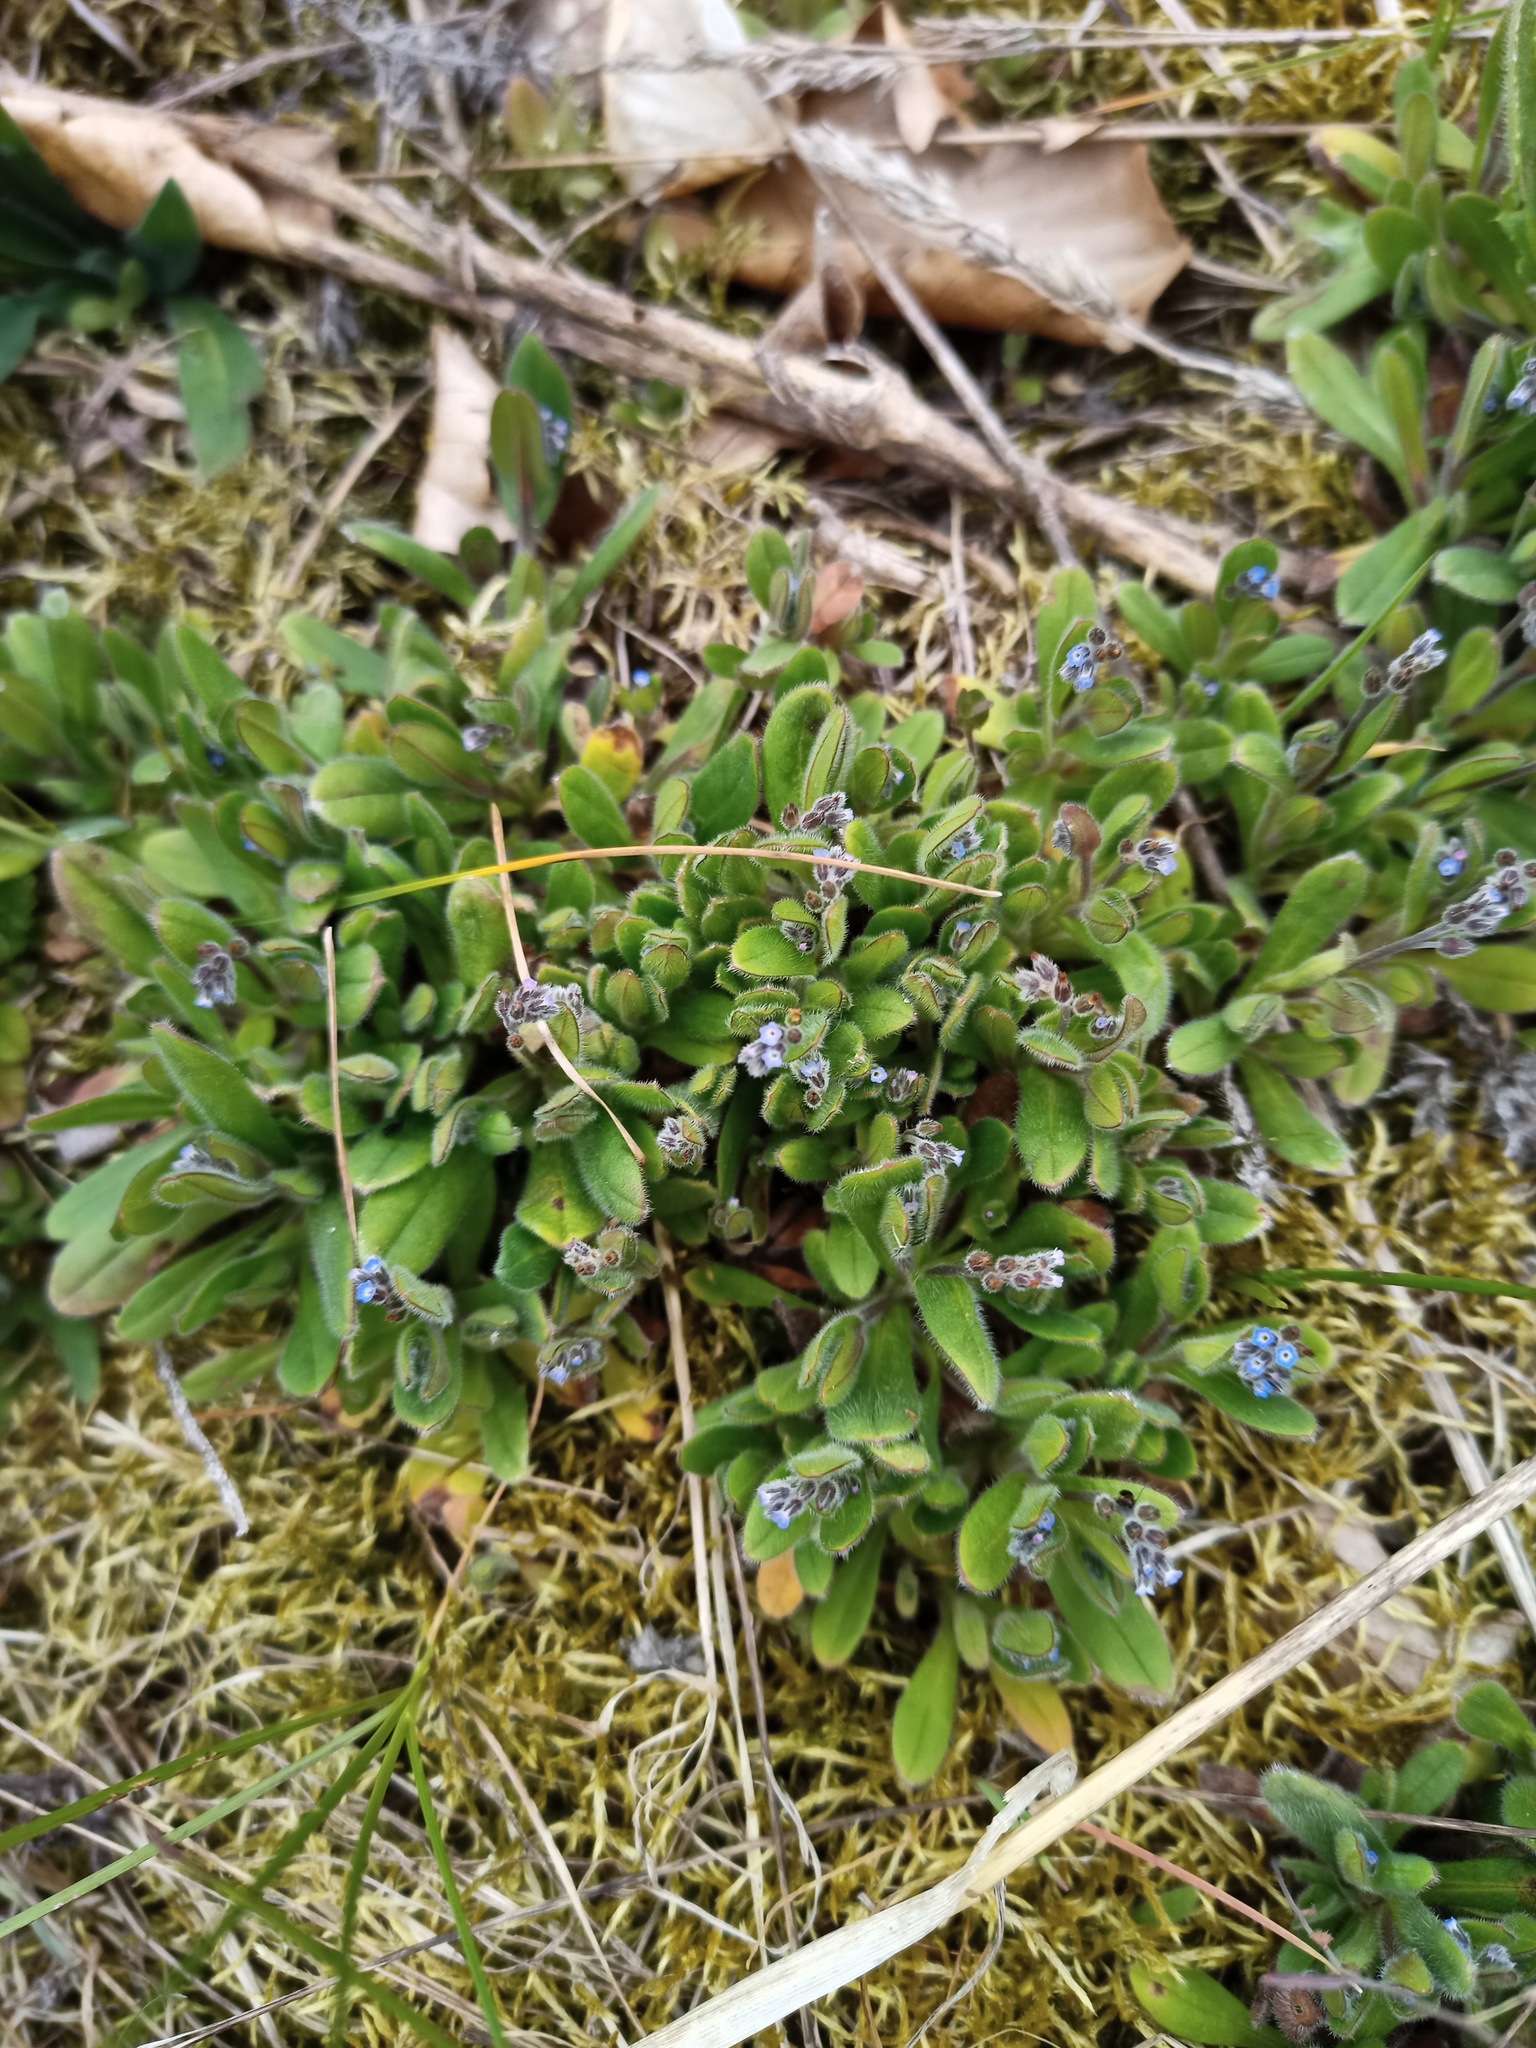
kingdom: Plantae
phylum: Tracheophyta
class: Magnoliopsida
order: Boraginales
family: Boraginaceae
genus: Myosotis
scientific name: Myosotis arvensis
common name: Field forget-me-not
